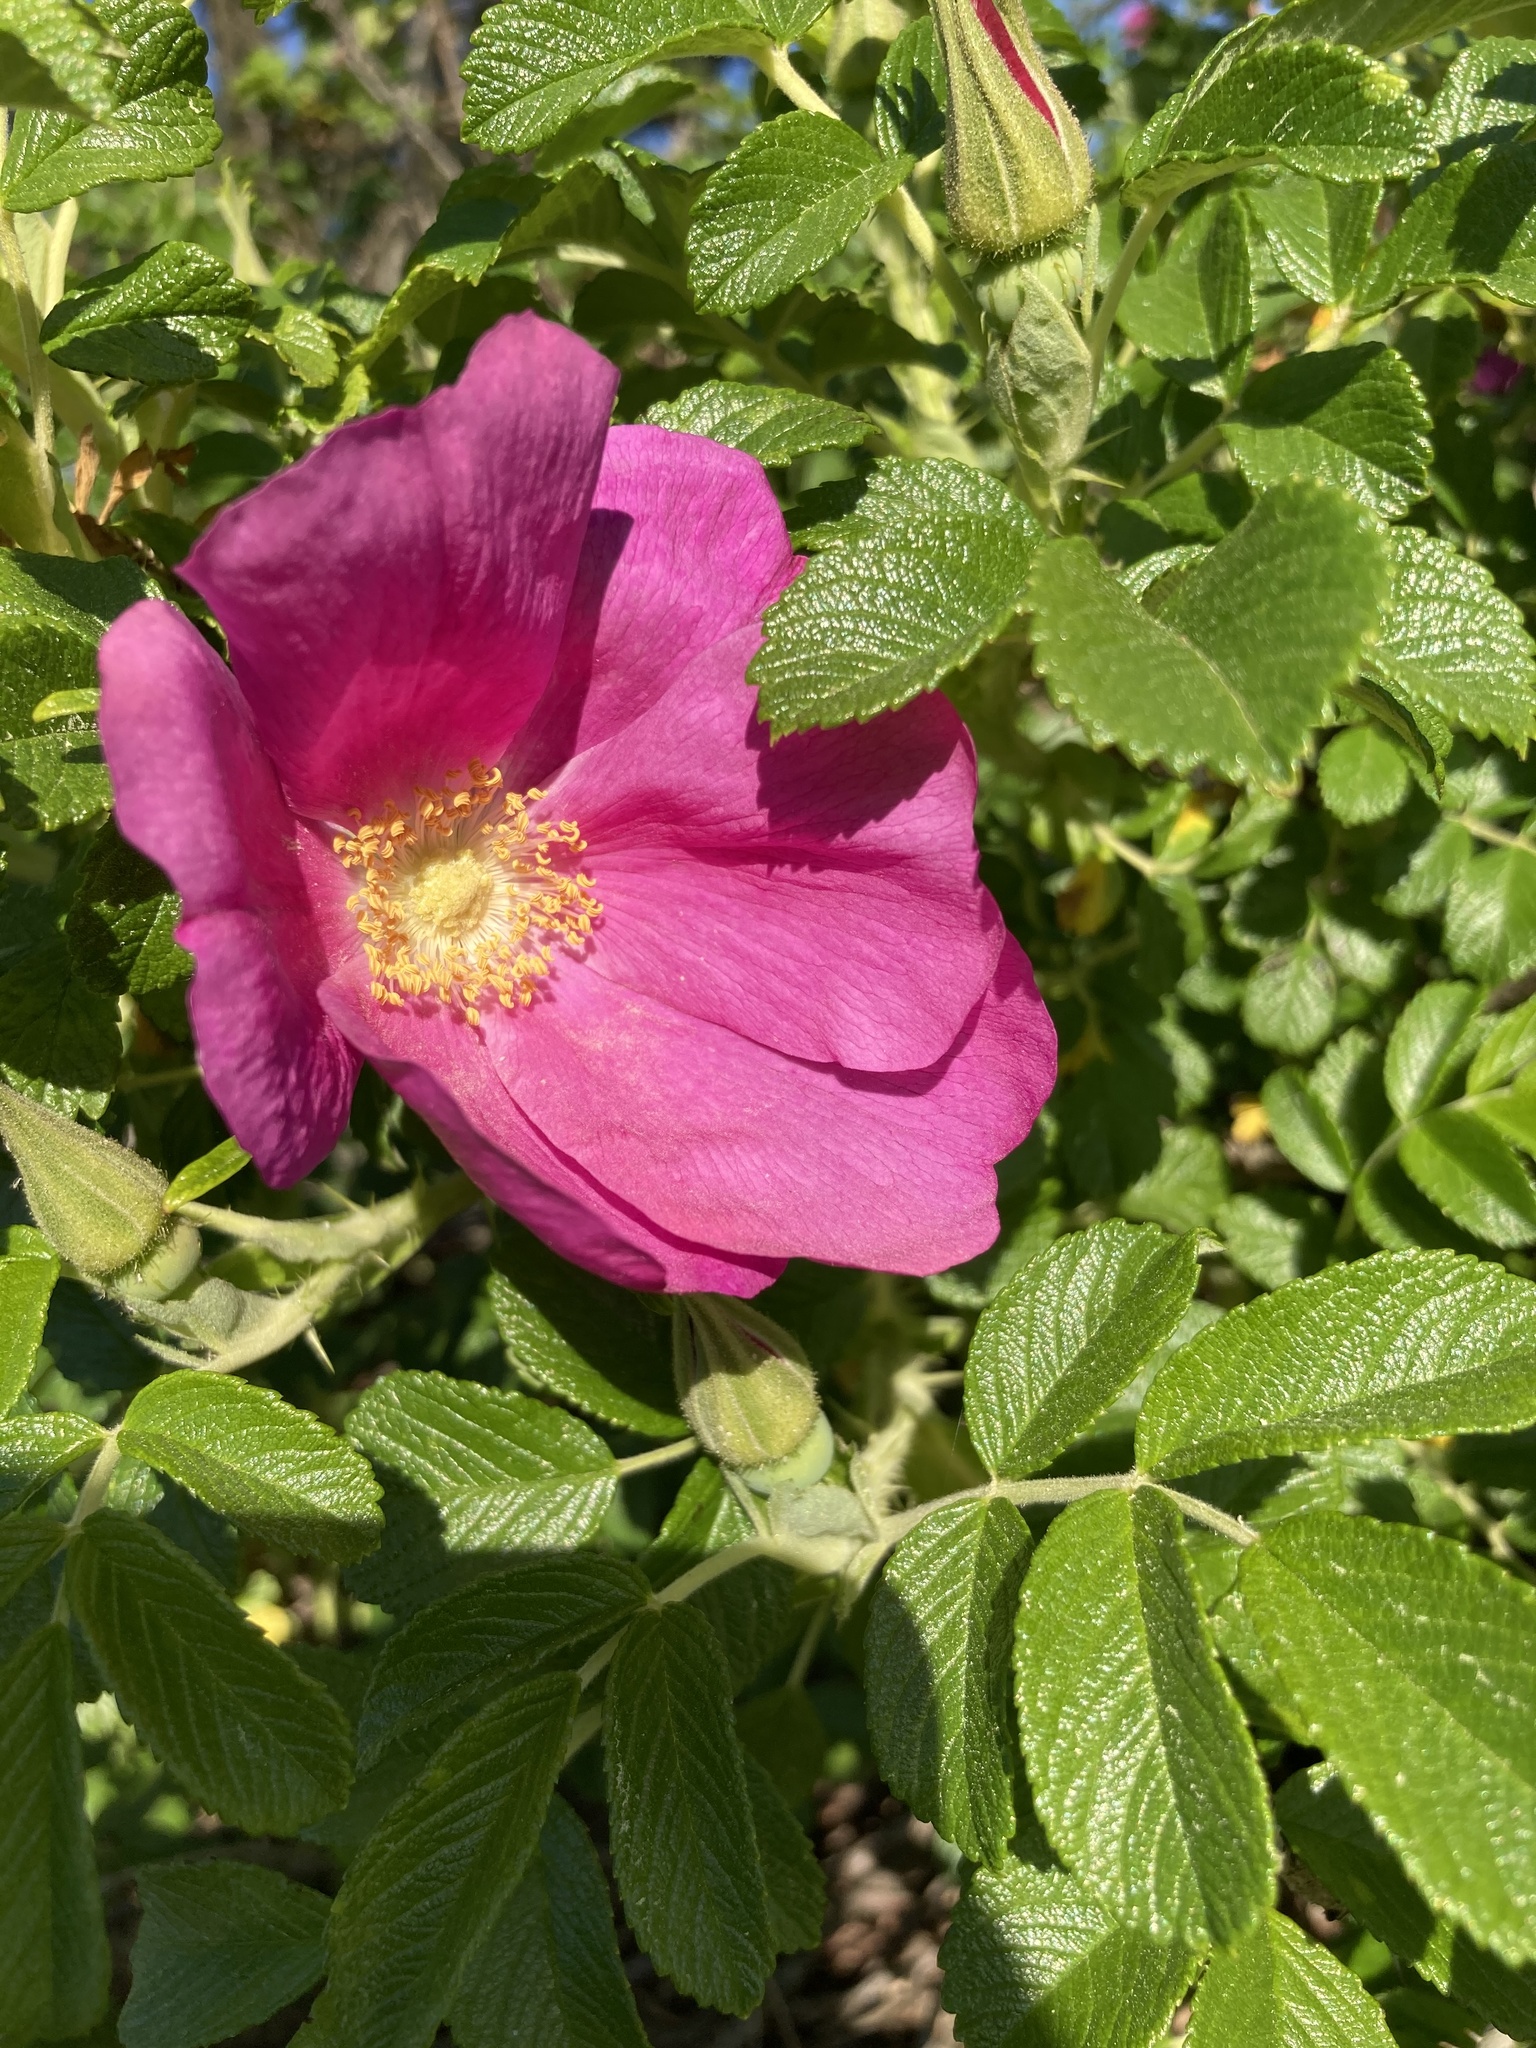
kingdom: Plantae
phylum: Tracheophyta
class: Magnoliopsida
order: Rosales
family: Rosaceae
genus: Rosa
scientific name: Rosa rugosa
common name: Japanese rose
